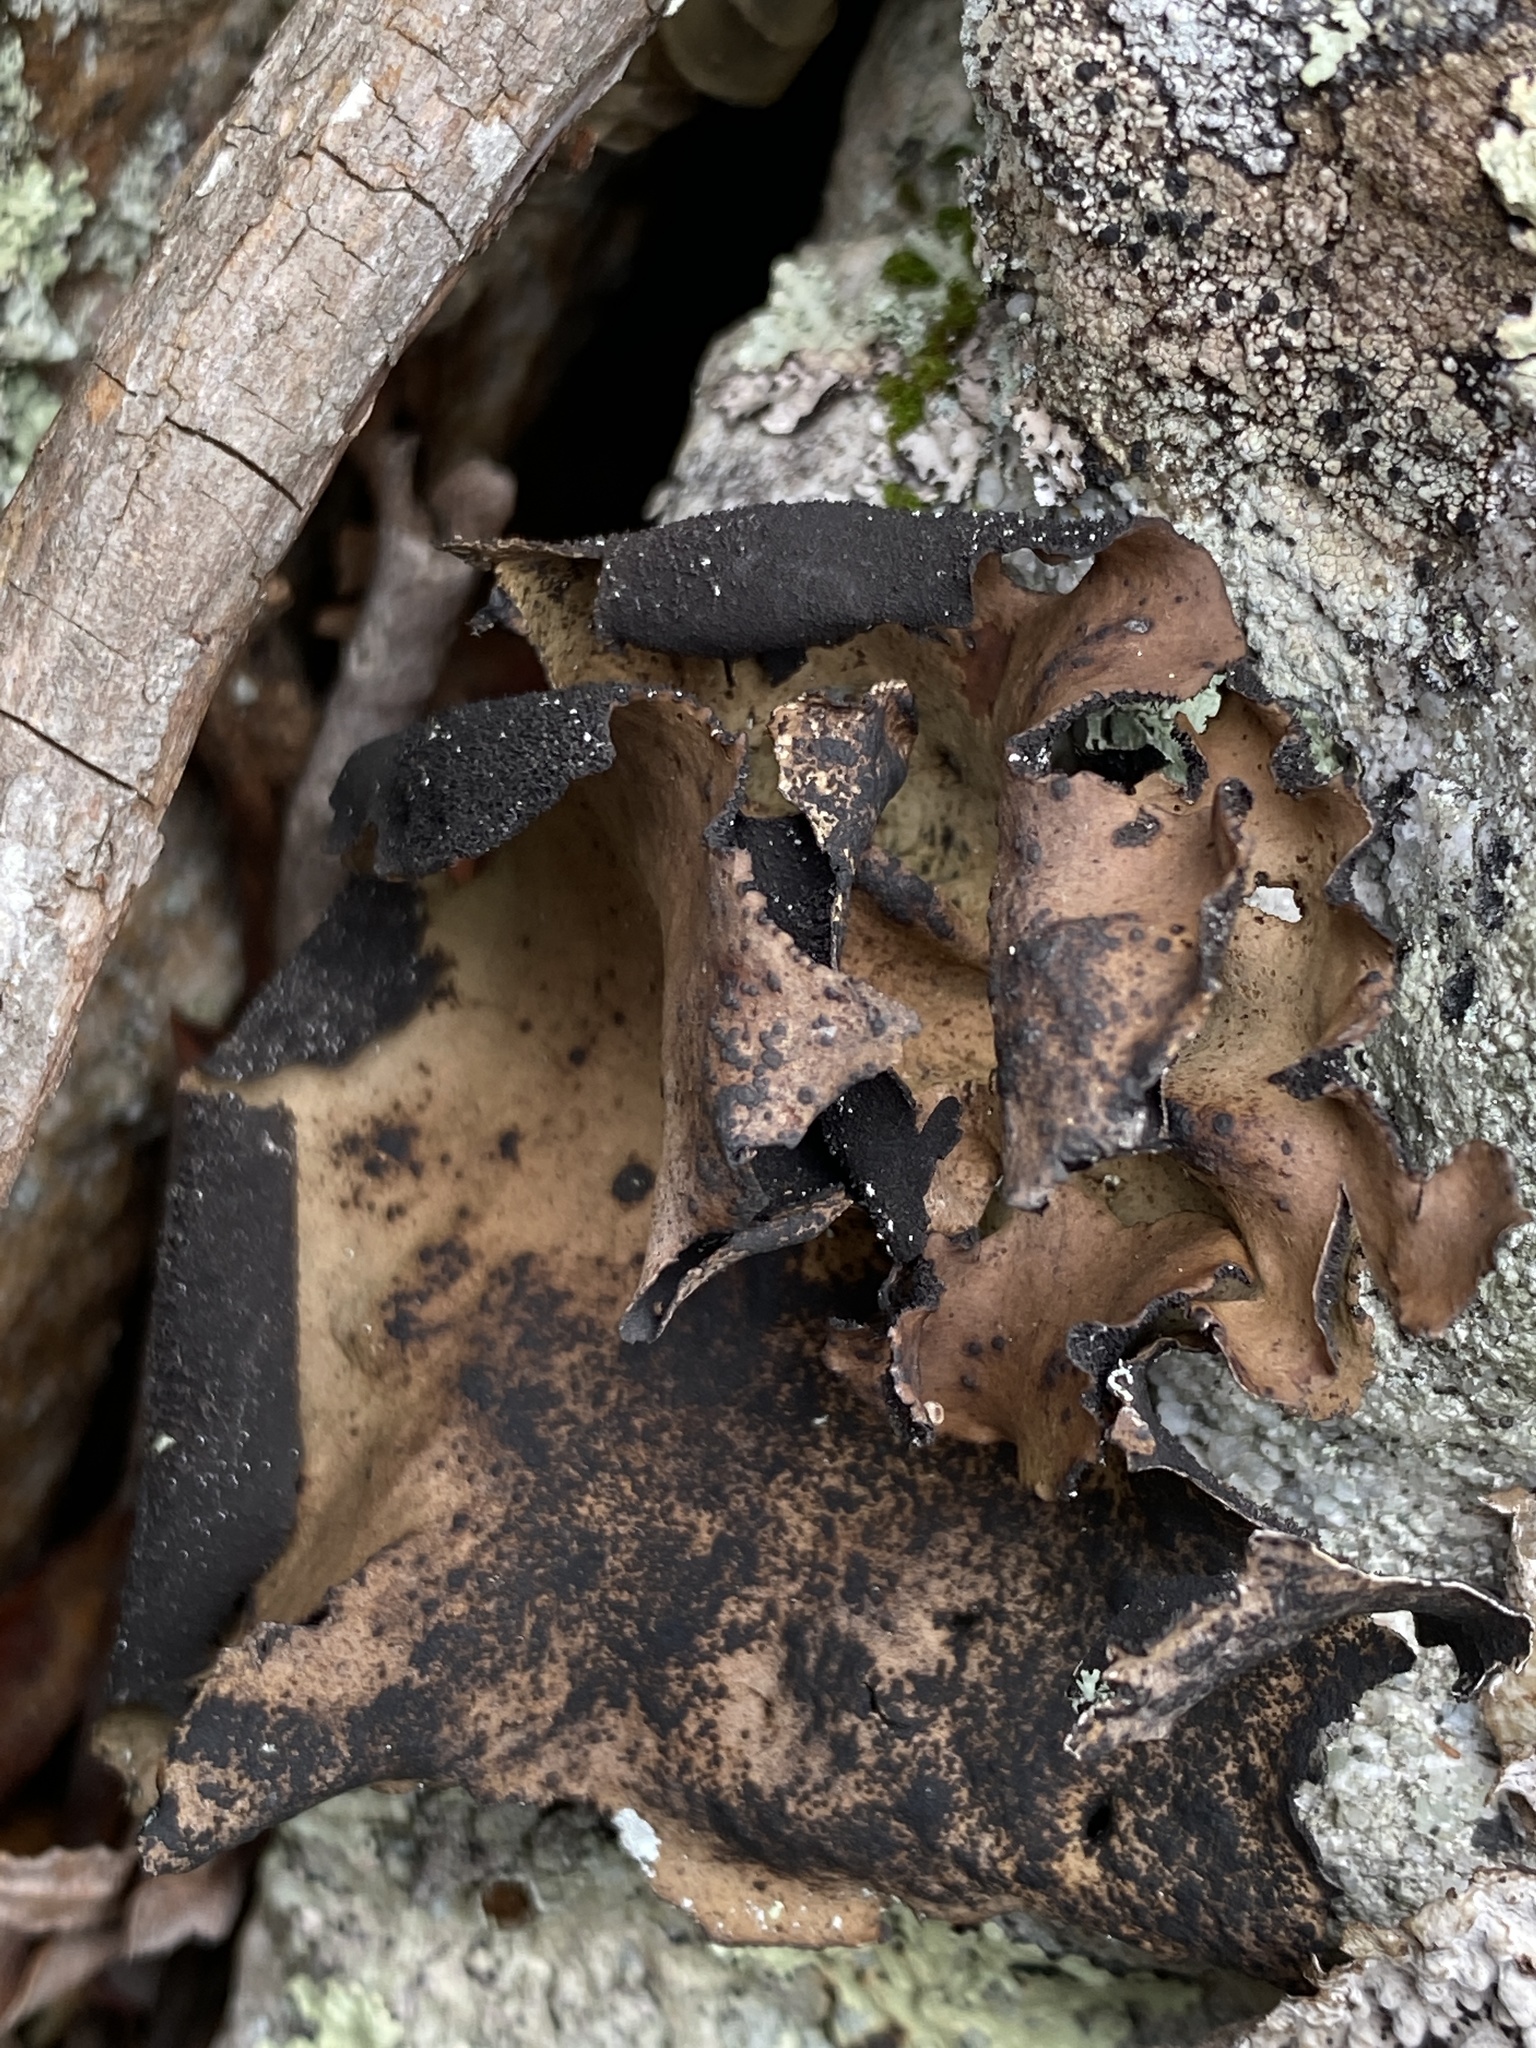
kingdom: Fungi
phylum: Ascomycota
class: Lecanoromycetes
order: Umbilicariales
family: Umbilicariaceae
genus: Umbilicaria
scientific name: Umbilicaria mammulata
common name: Smooth rock tripe
